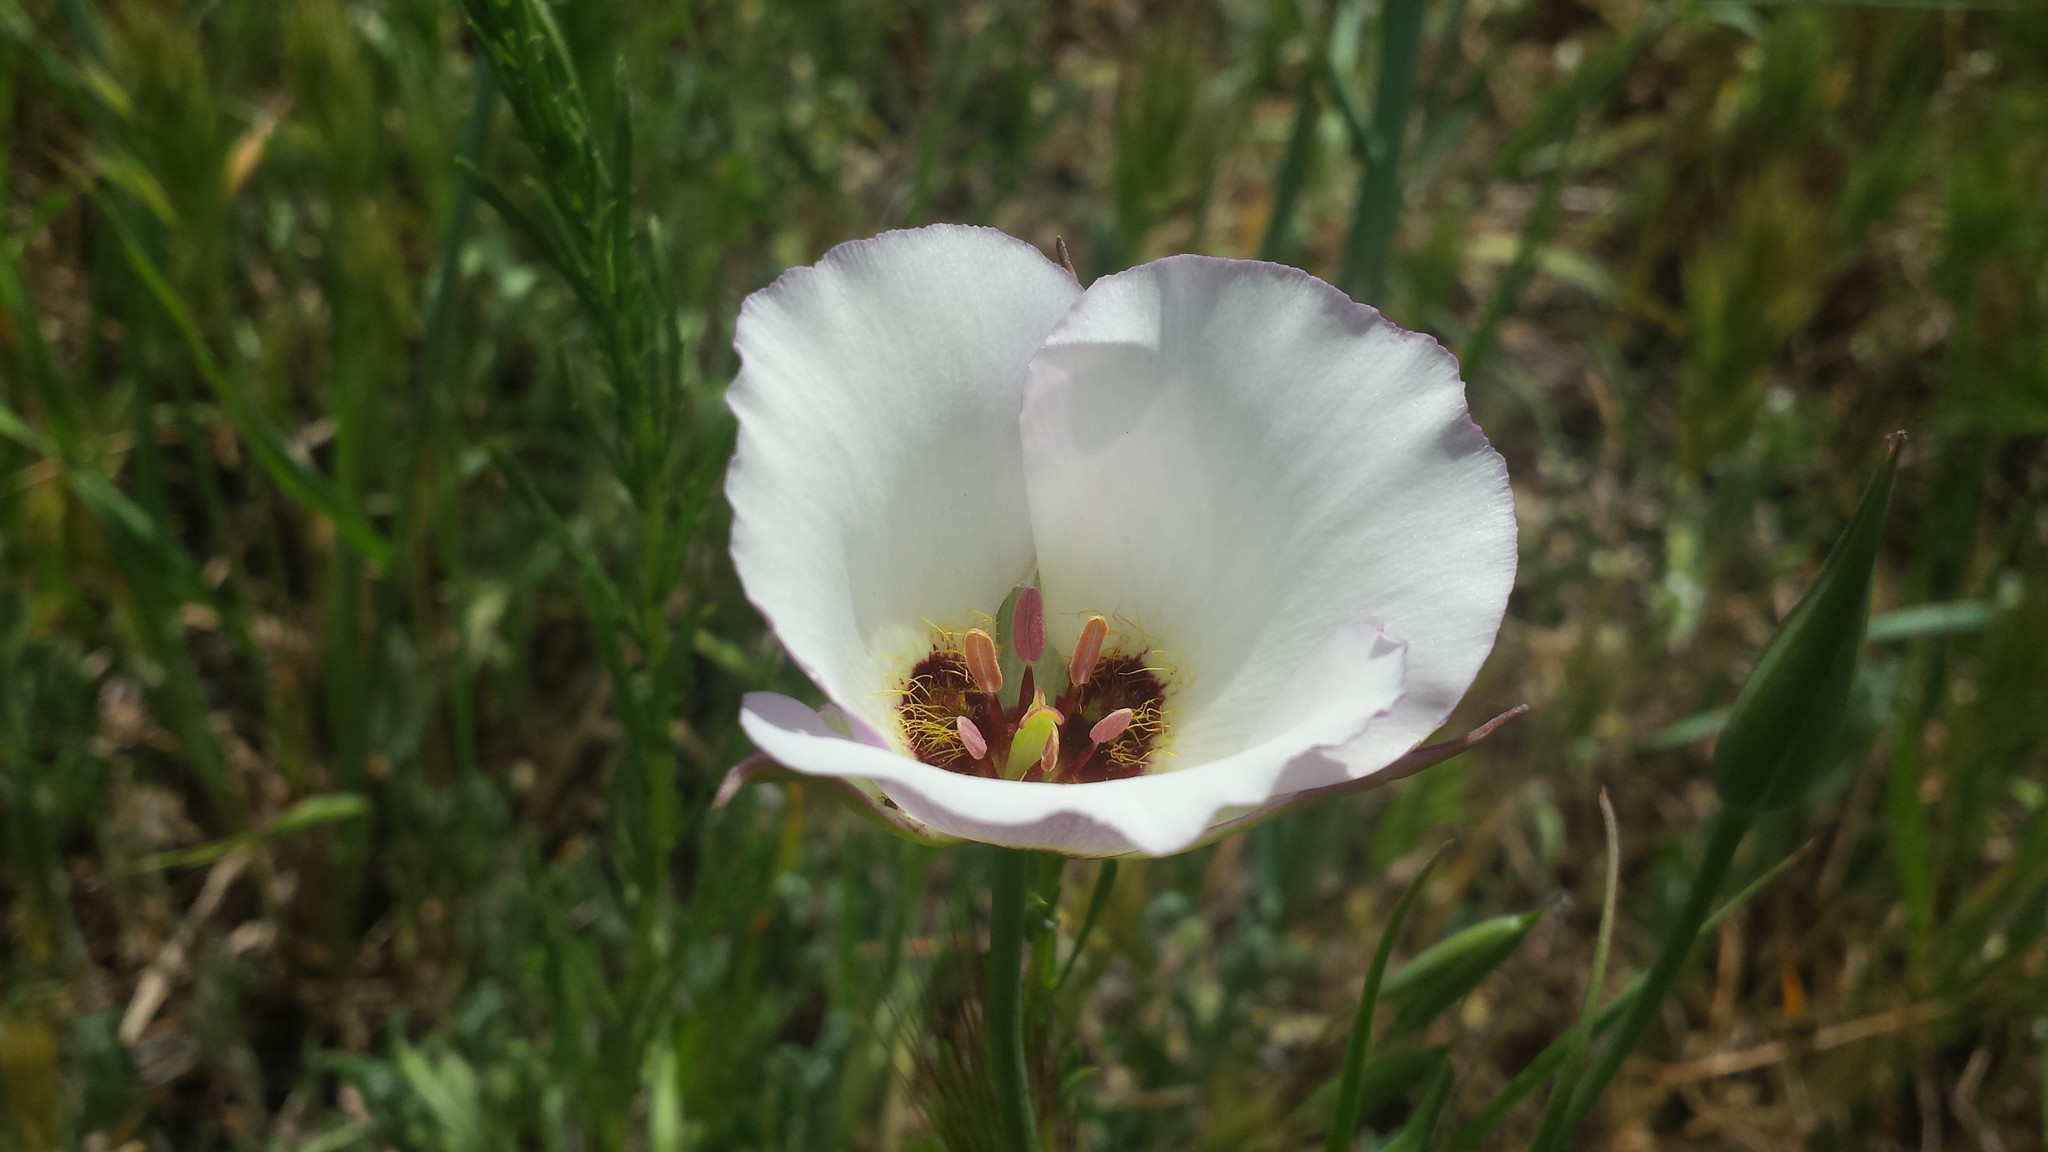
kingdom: Plantae
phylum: Tracheophyta
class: Liliopsida
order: Liliales
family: Liliaceae
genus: Calochortus
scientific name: Calochortus catalinae
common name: Catalina mariposa-lily
